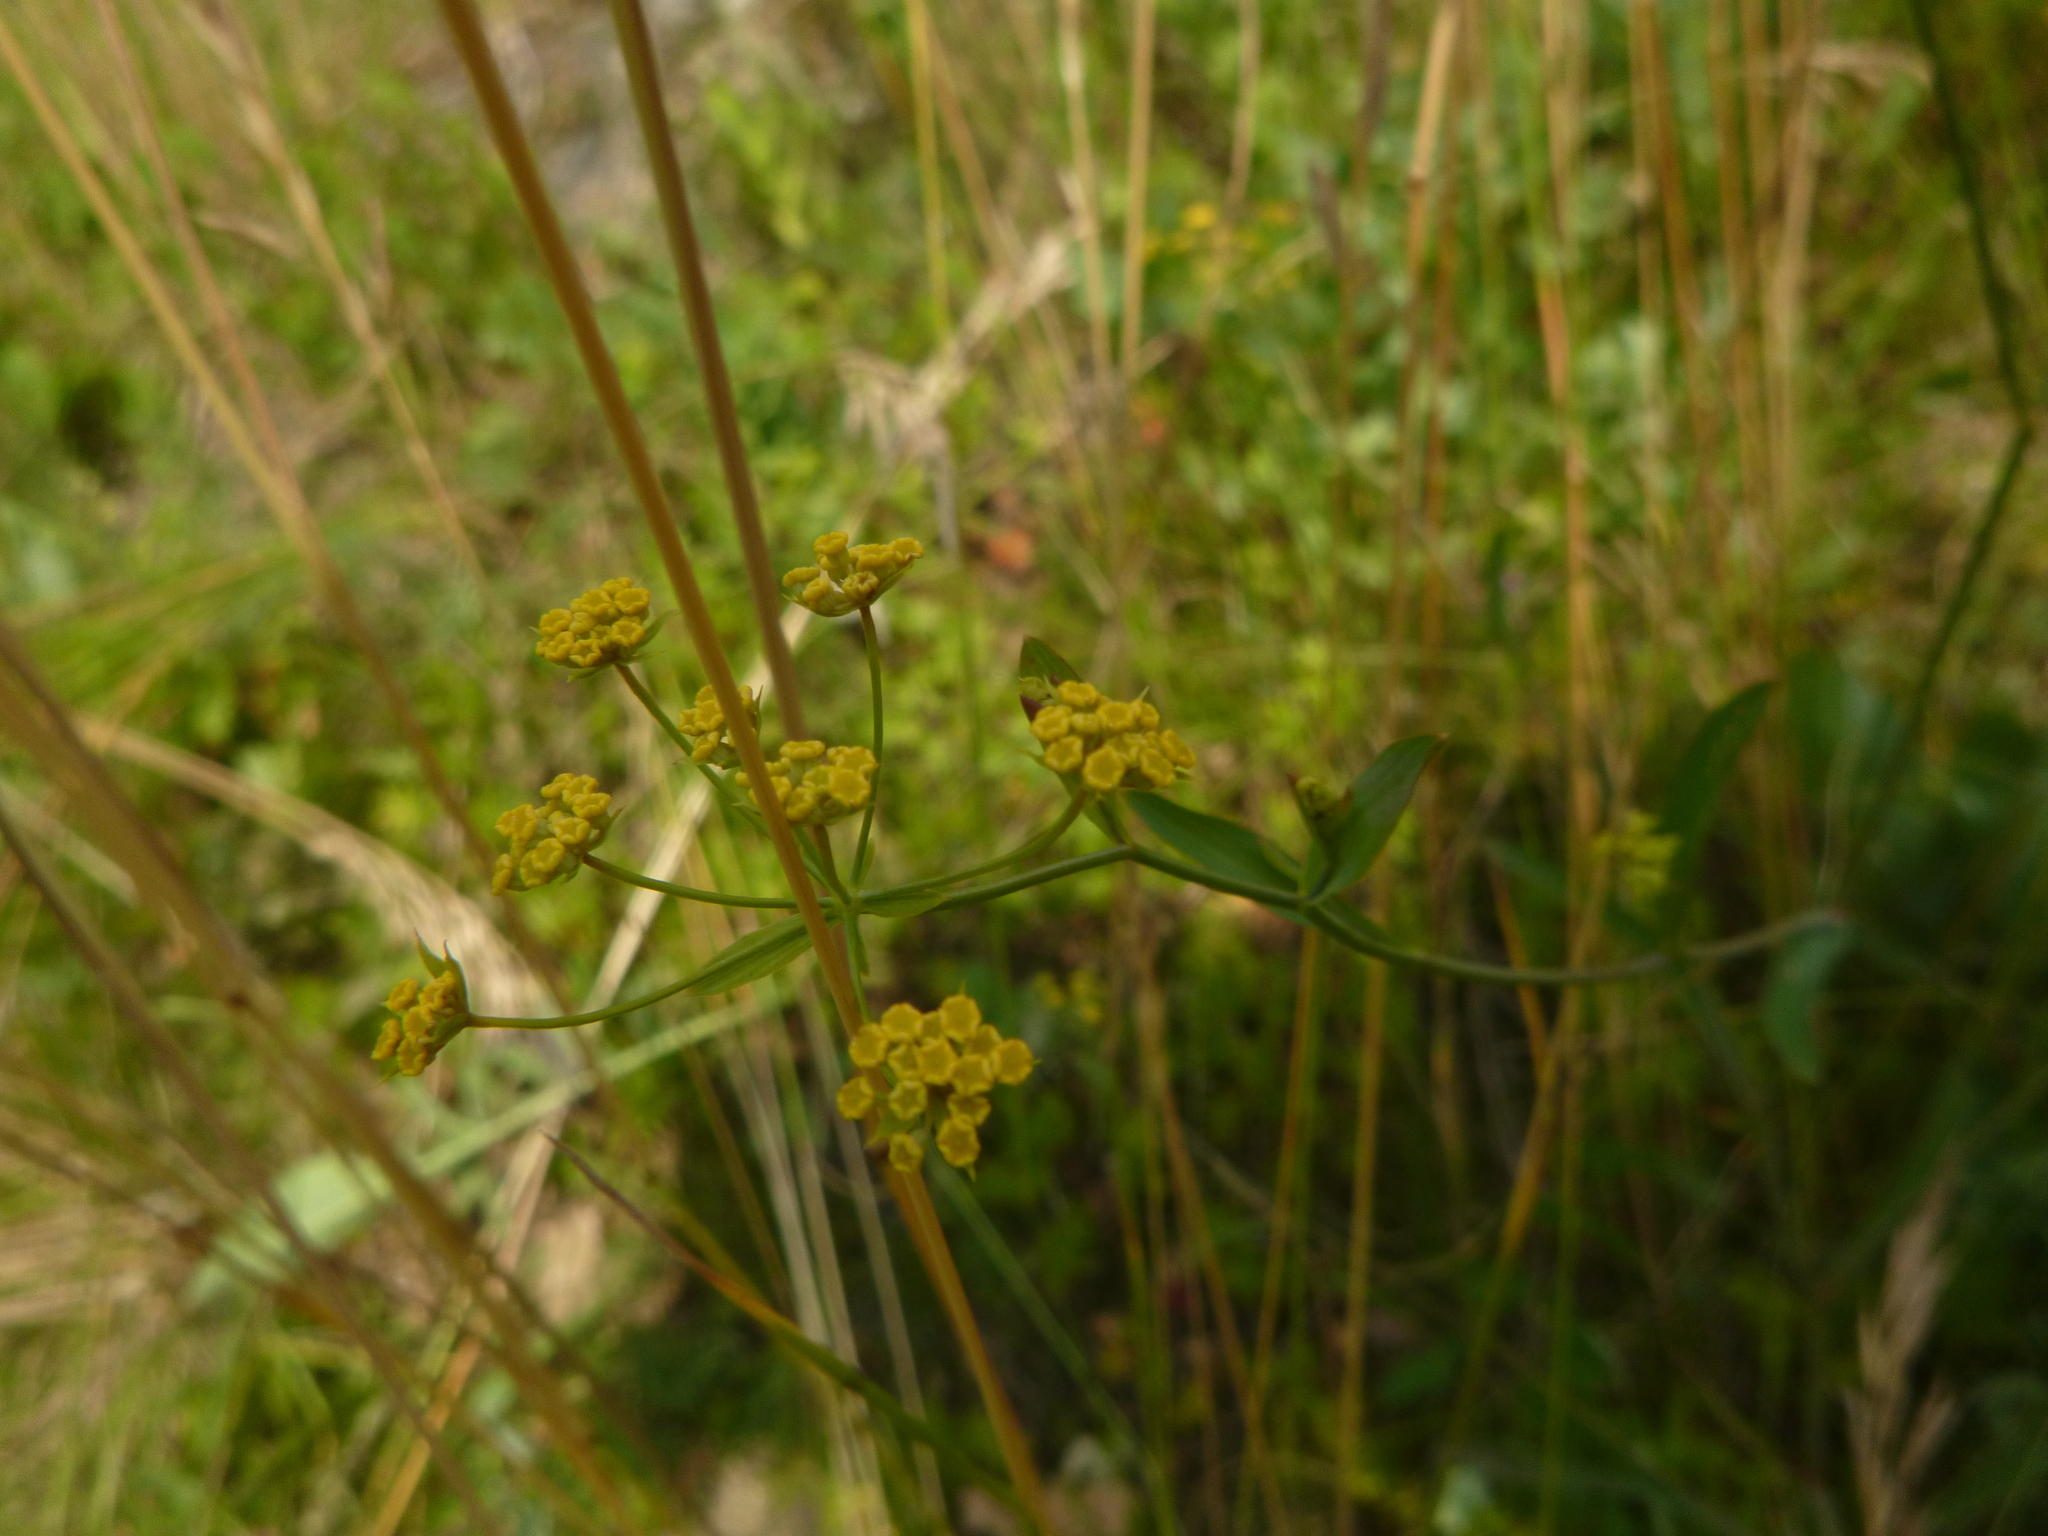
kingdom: Plantae
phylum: Tracheophyta
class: Magnoliopsida
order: Apiales
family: Apiaceae
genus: Bupleurum
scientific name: Bupleurum falcatum
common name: Sickle-leaved hare's-ear
